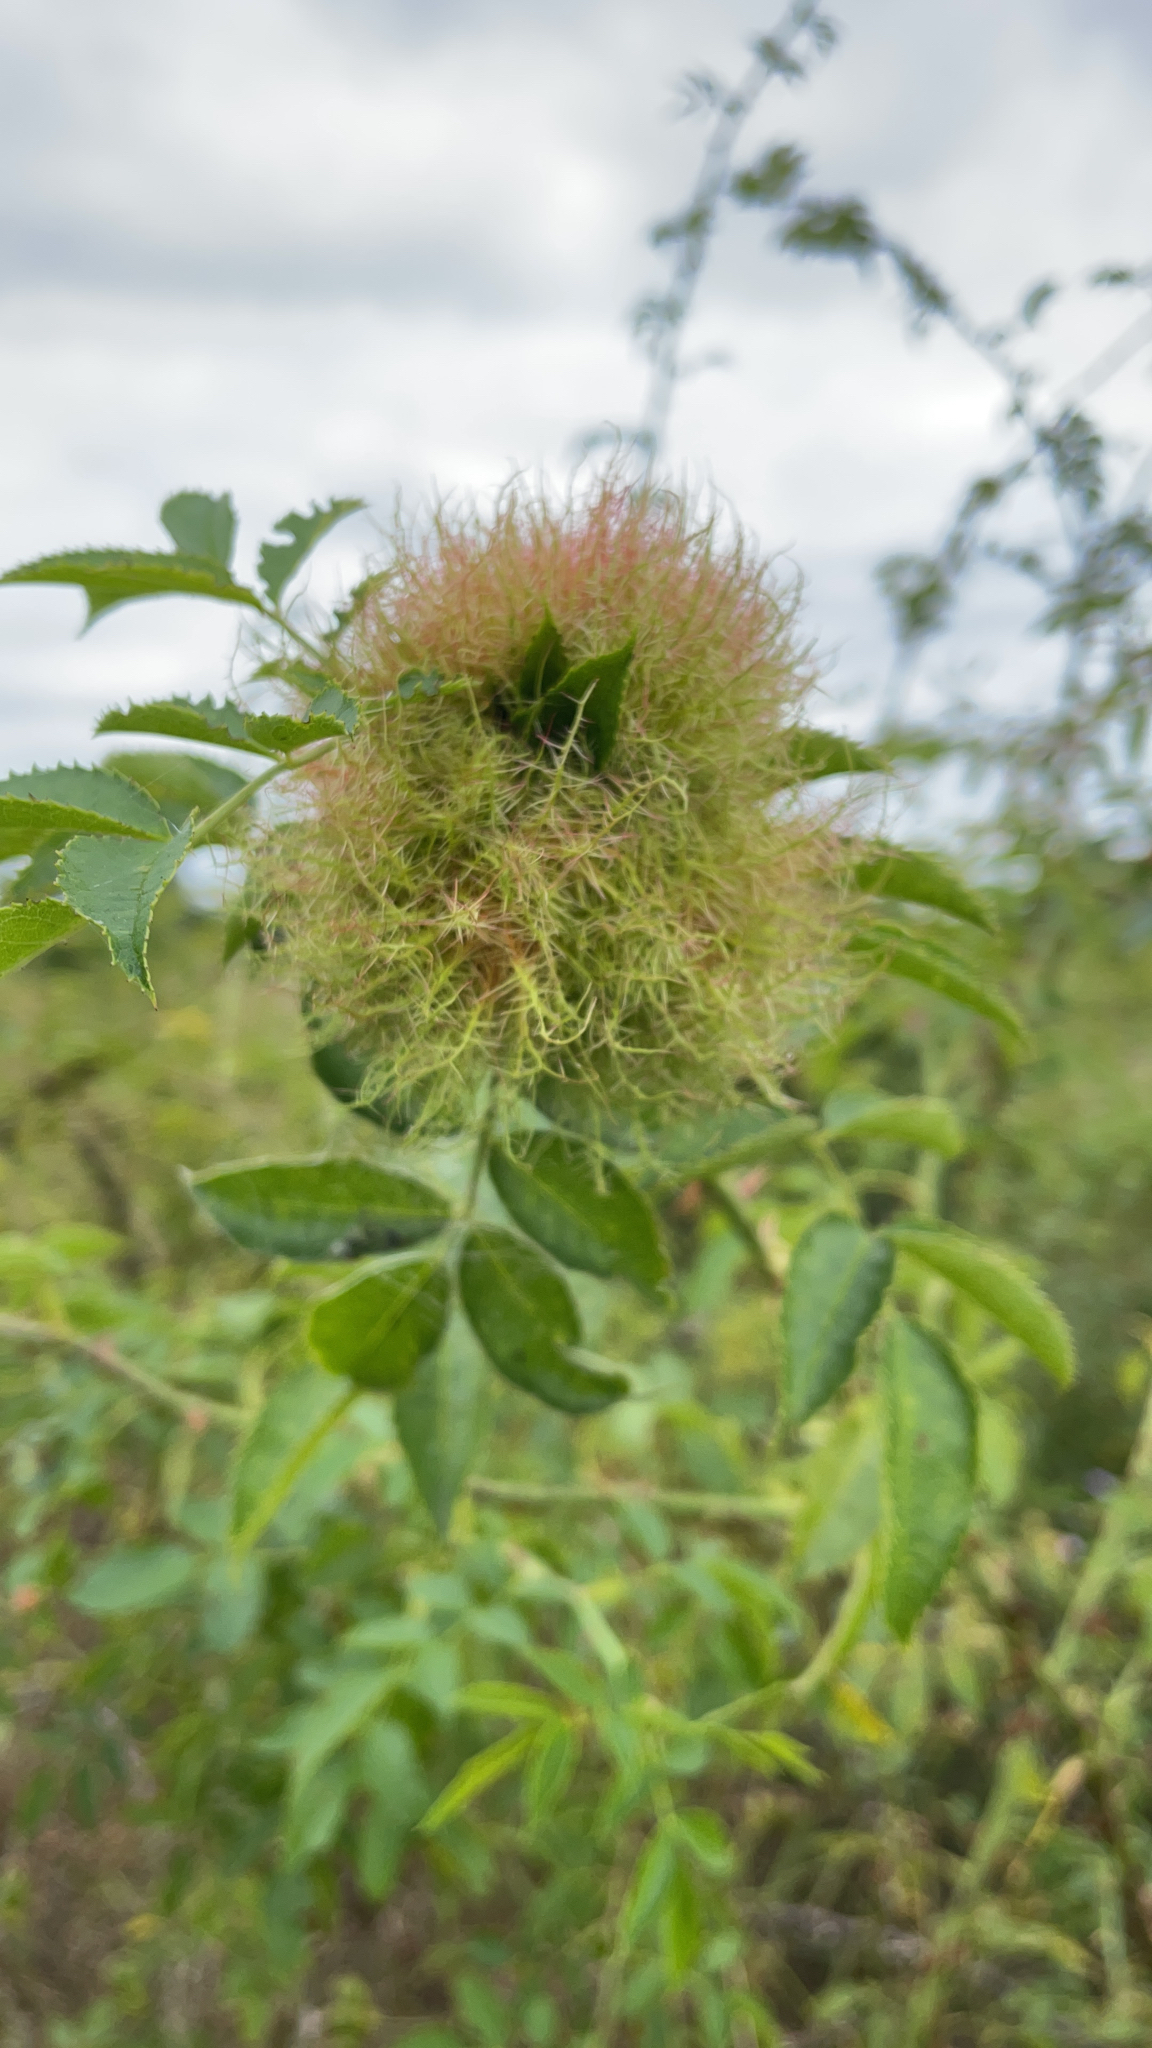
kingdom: Animalia
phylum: Arthropoda
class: Insecta
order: Hymenoptera
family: Cynipidae
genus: Diplolepis
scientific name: Diplolepis rosae
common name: Bedeguar gall
